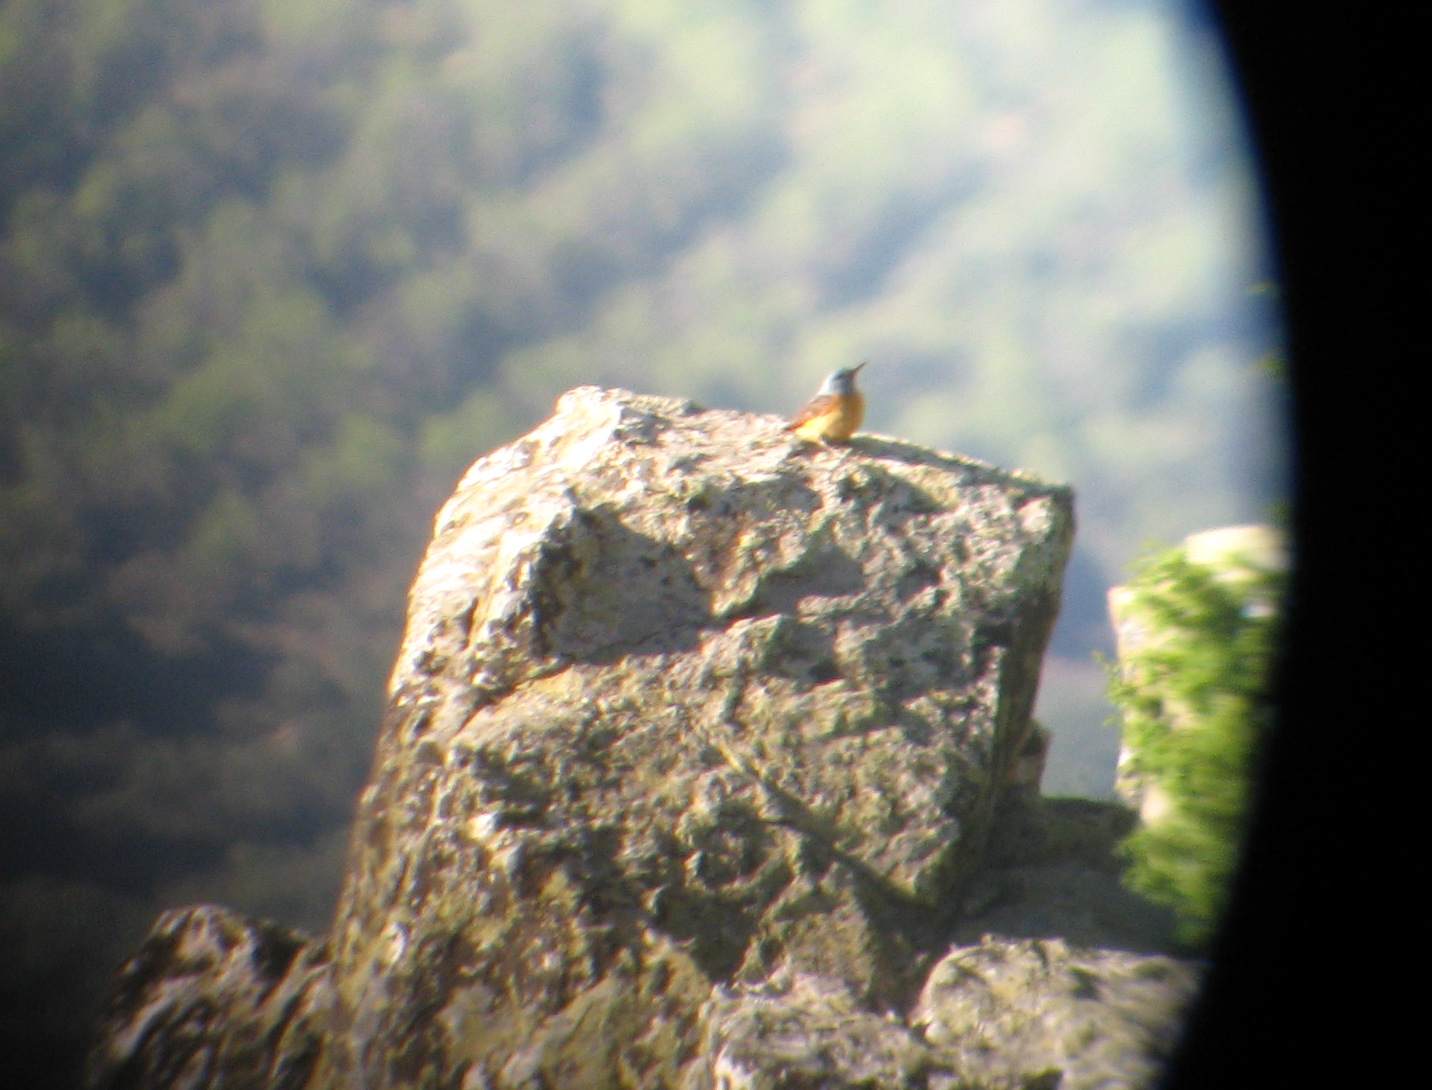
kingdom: Animalia
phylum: Chordata
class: Aves
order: Passeriformes
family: Muscicapidae
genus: Monticola
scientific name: Monticola saxatilis
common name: Rufous-tailed rock thrush
